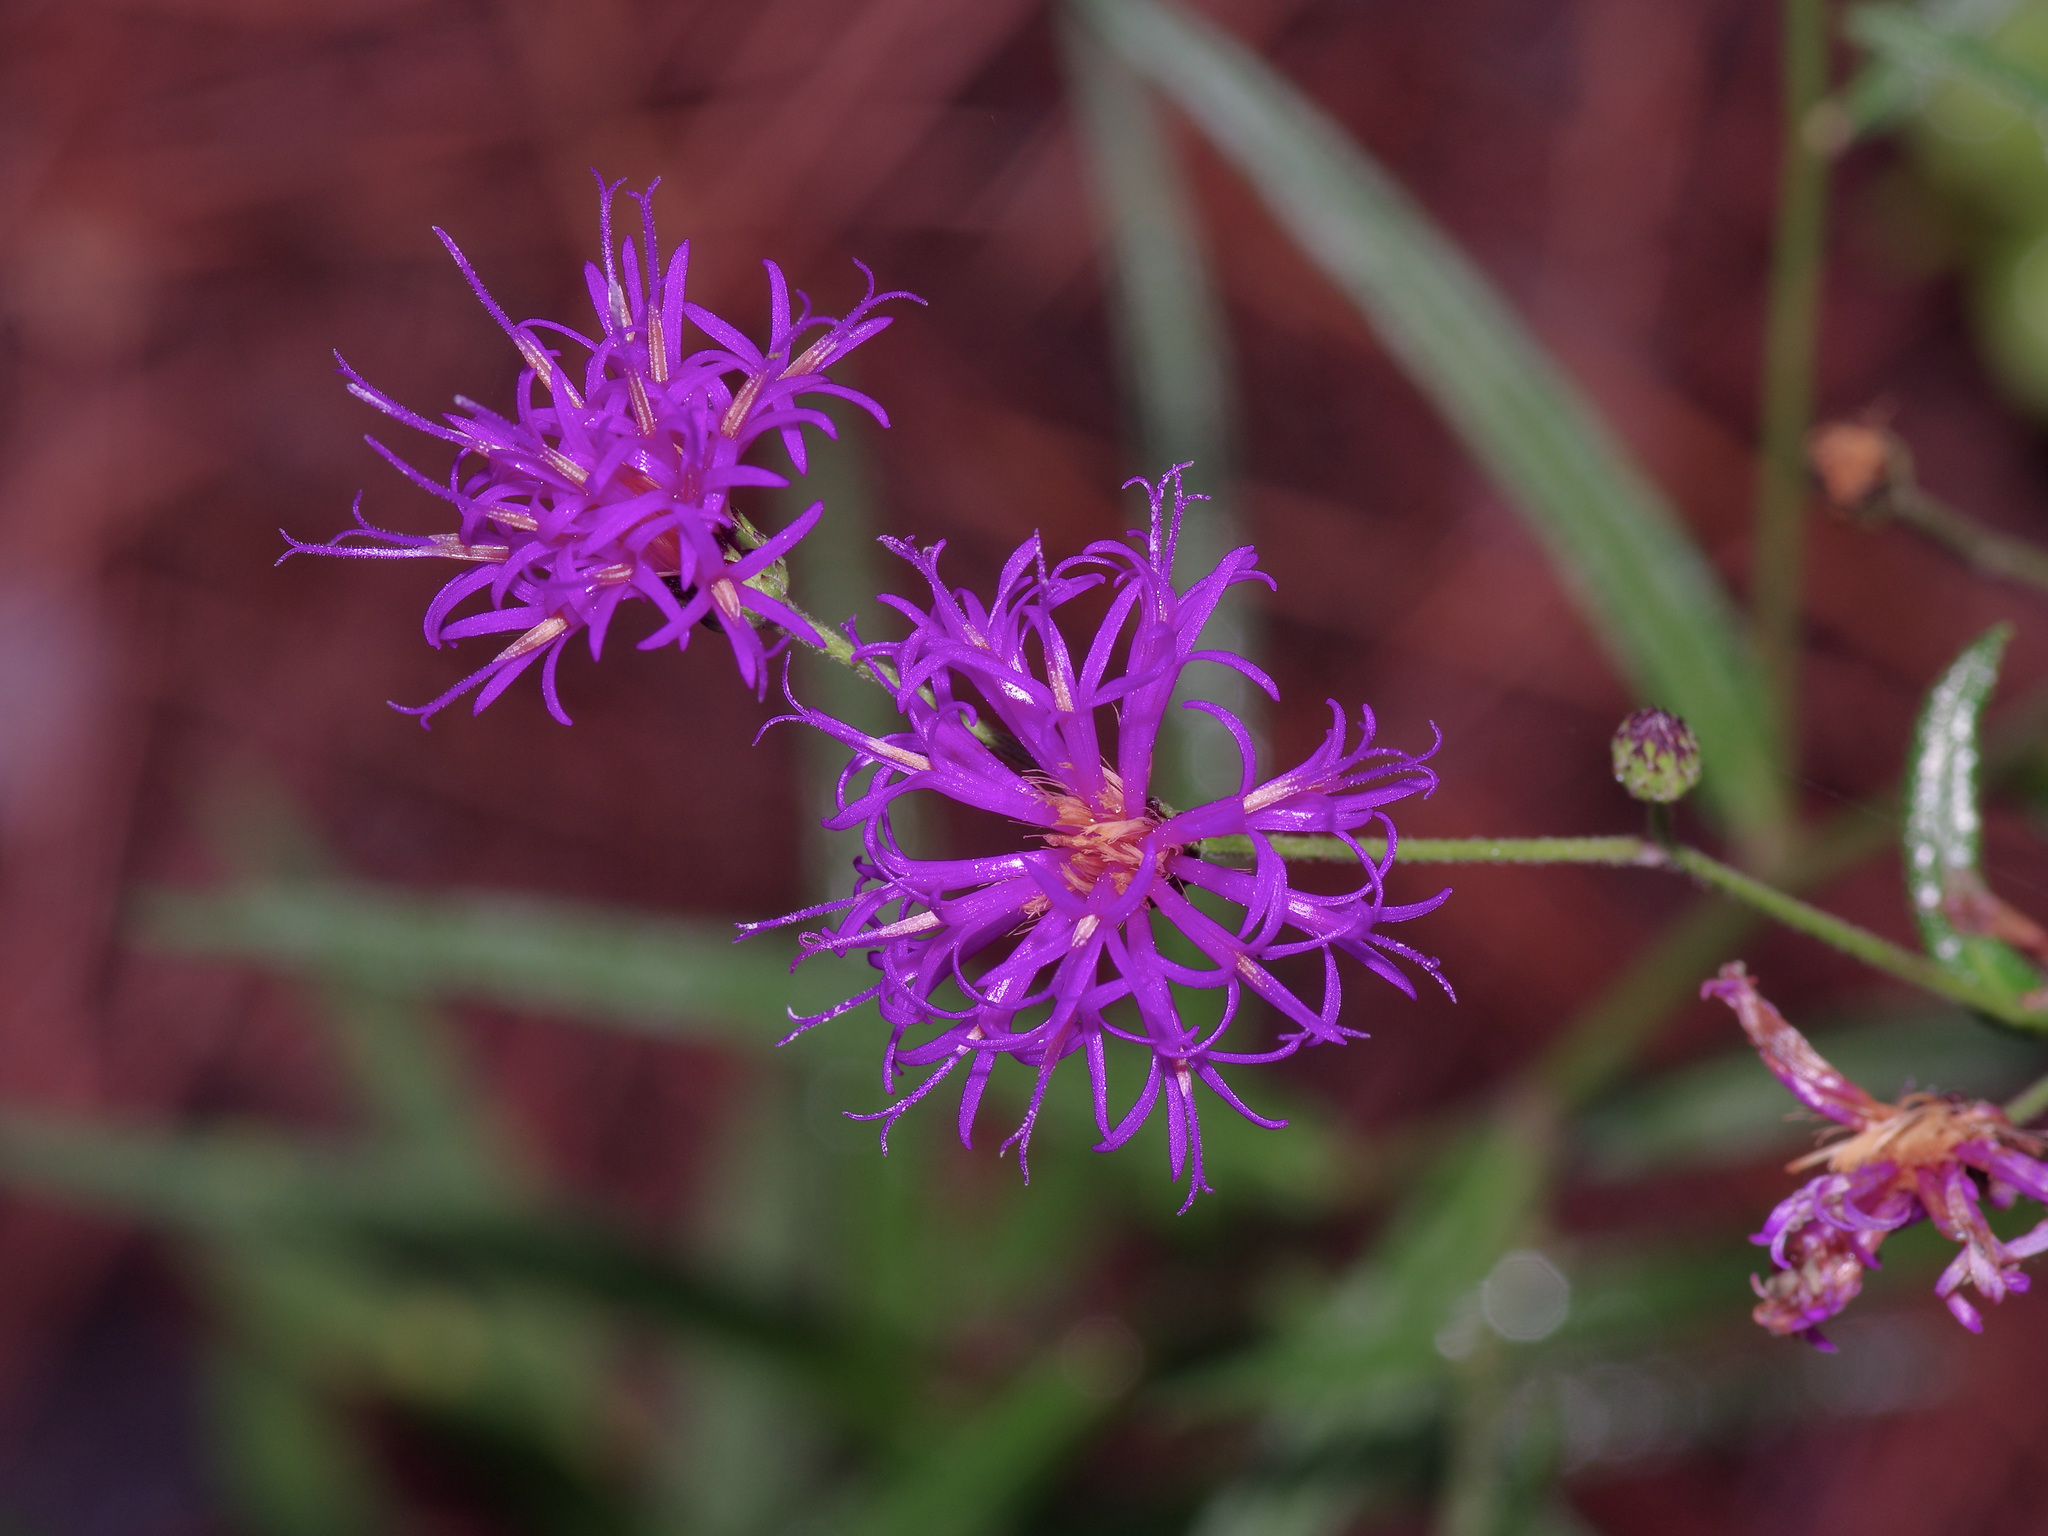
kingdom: Plantae
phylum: Tracheophyta
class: Magnoliopsida
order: Asterales
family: Asteraceae
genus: Vernonia
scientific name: Vernonia texana
